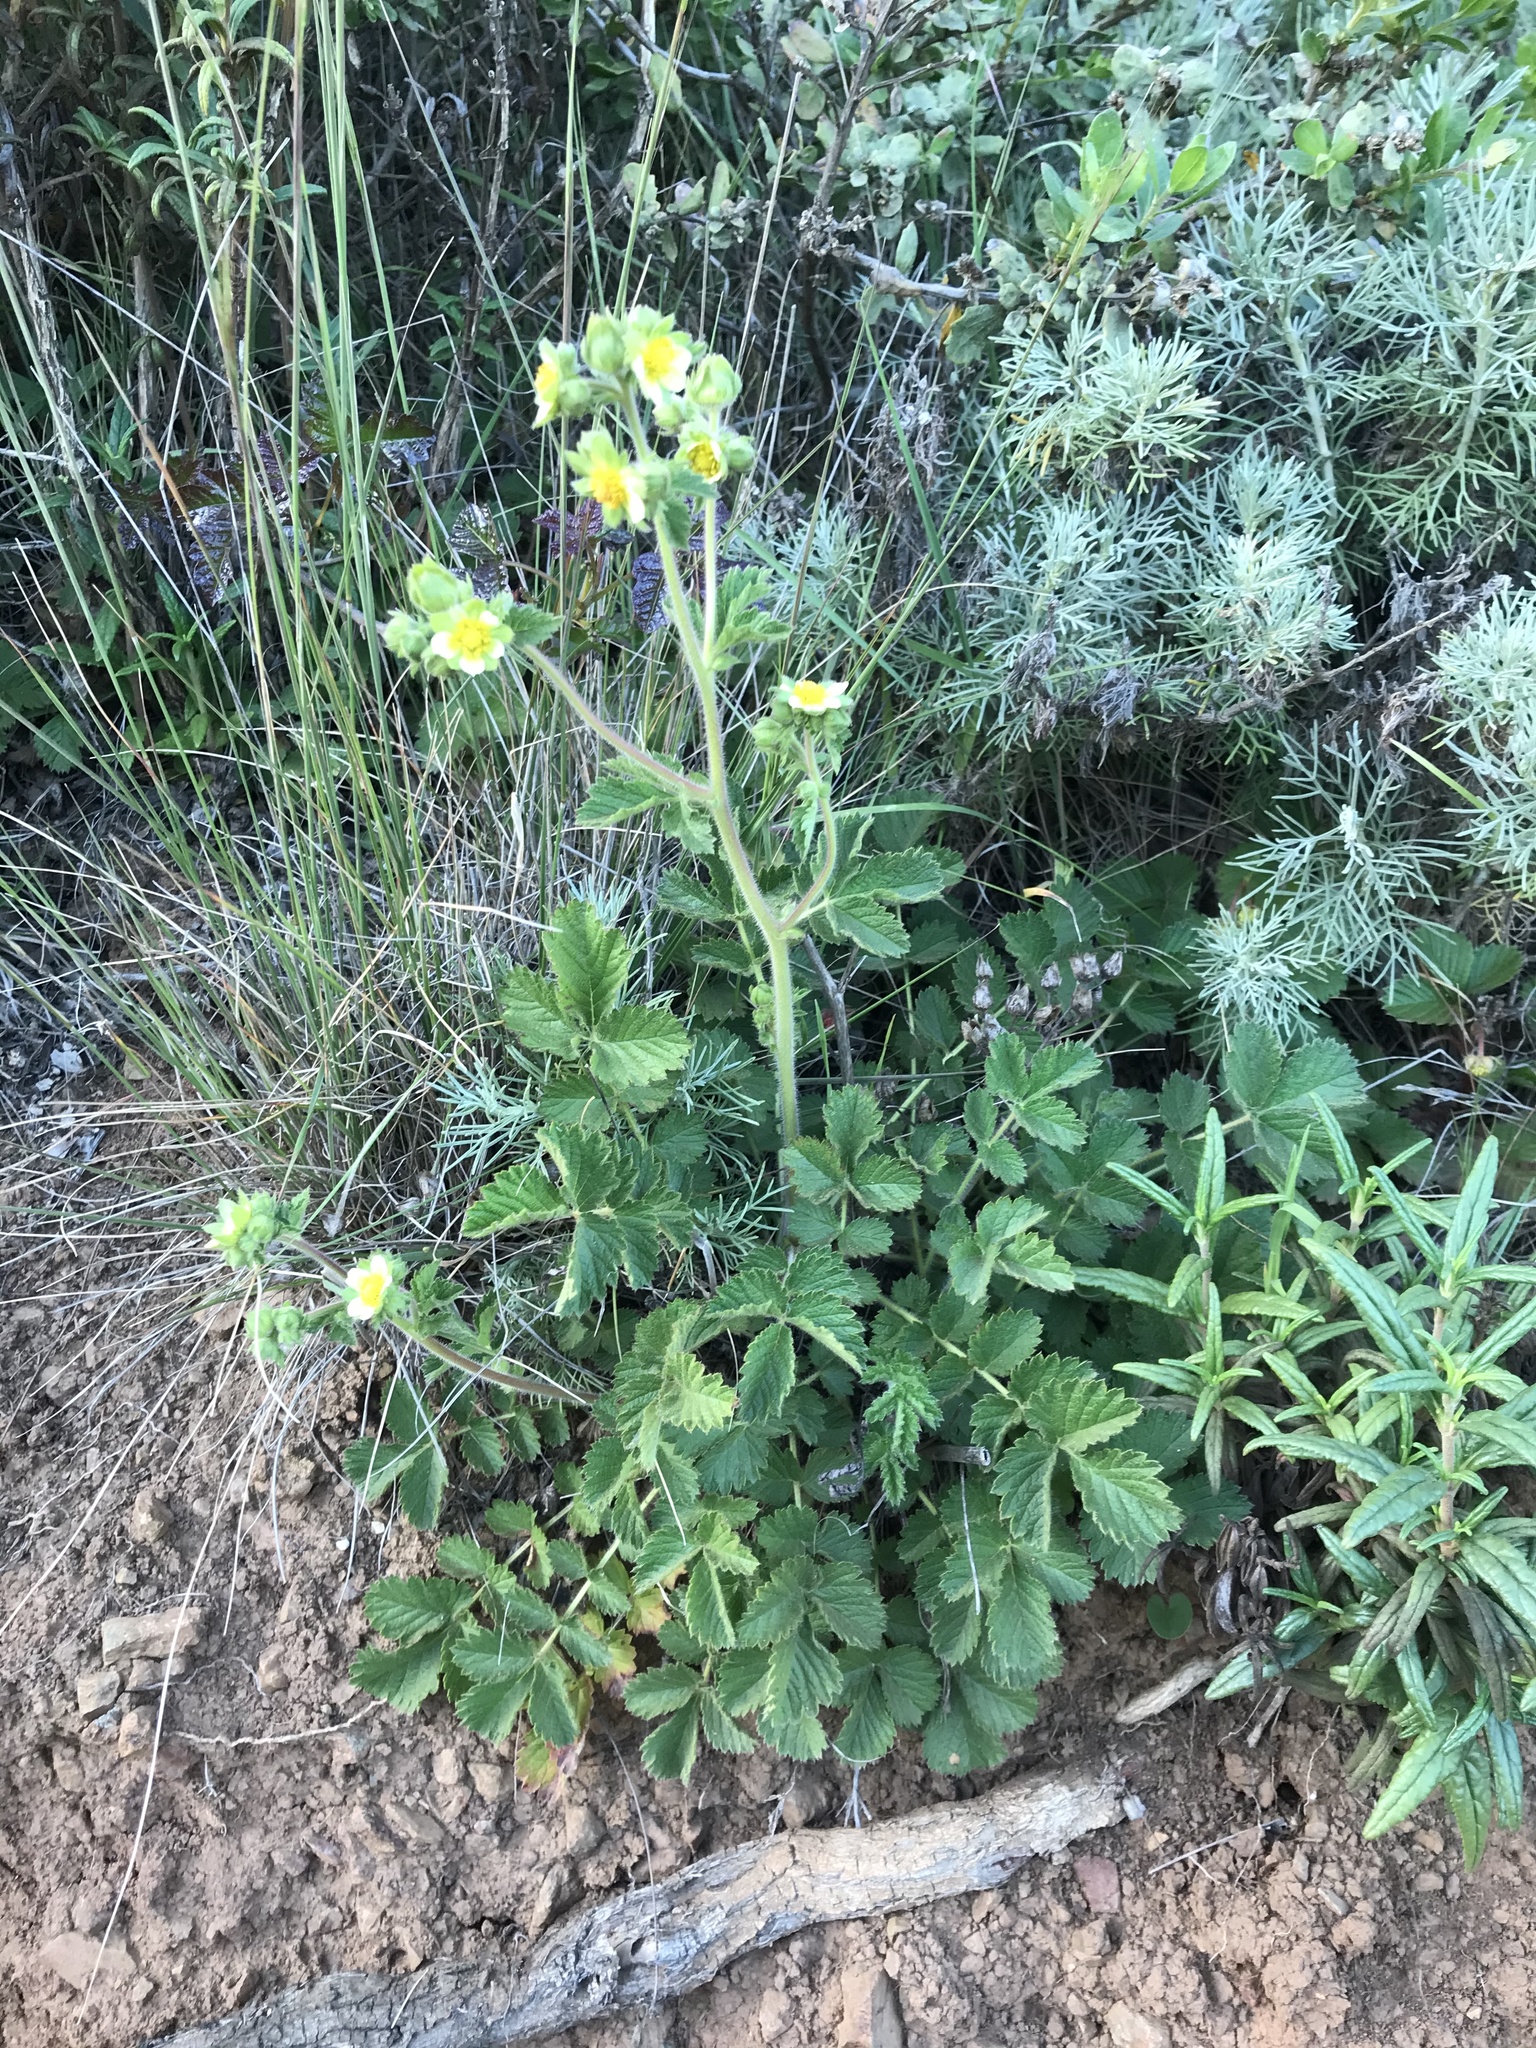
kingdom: Plantae
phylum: Tracheophyta
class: Magnoliopsida
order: Rosales
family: Rosaceae
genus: Drymocallis
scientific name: Drymocallis glandulosa
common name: Sticky cinquefoil
